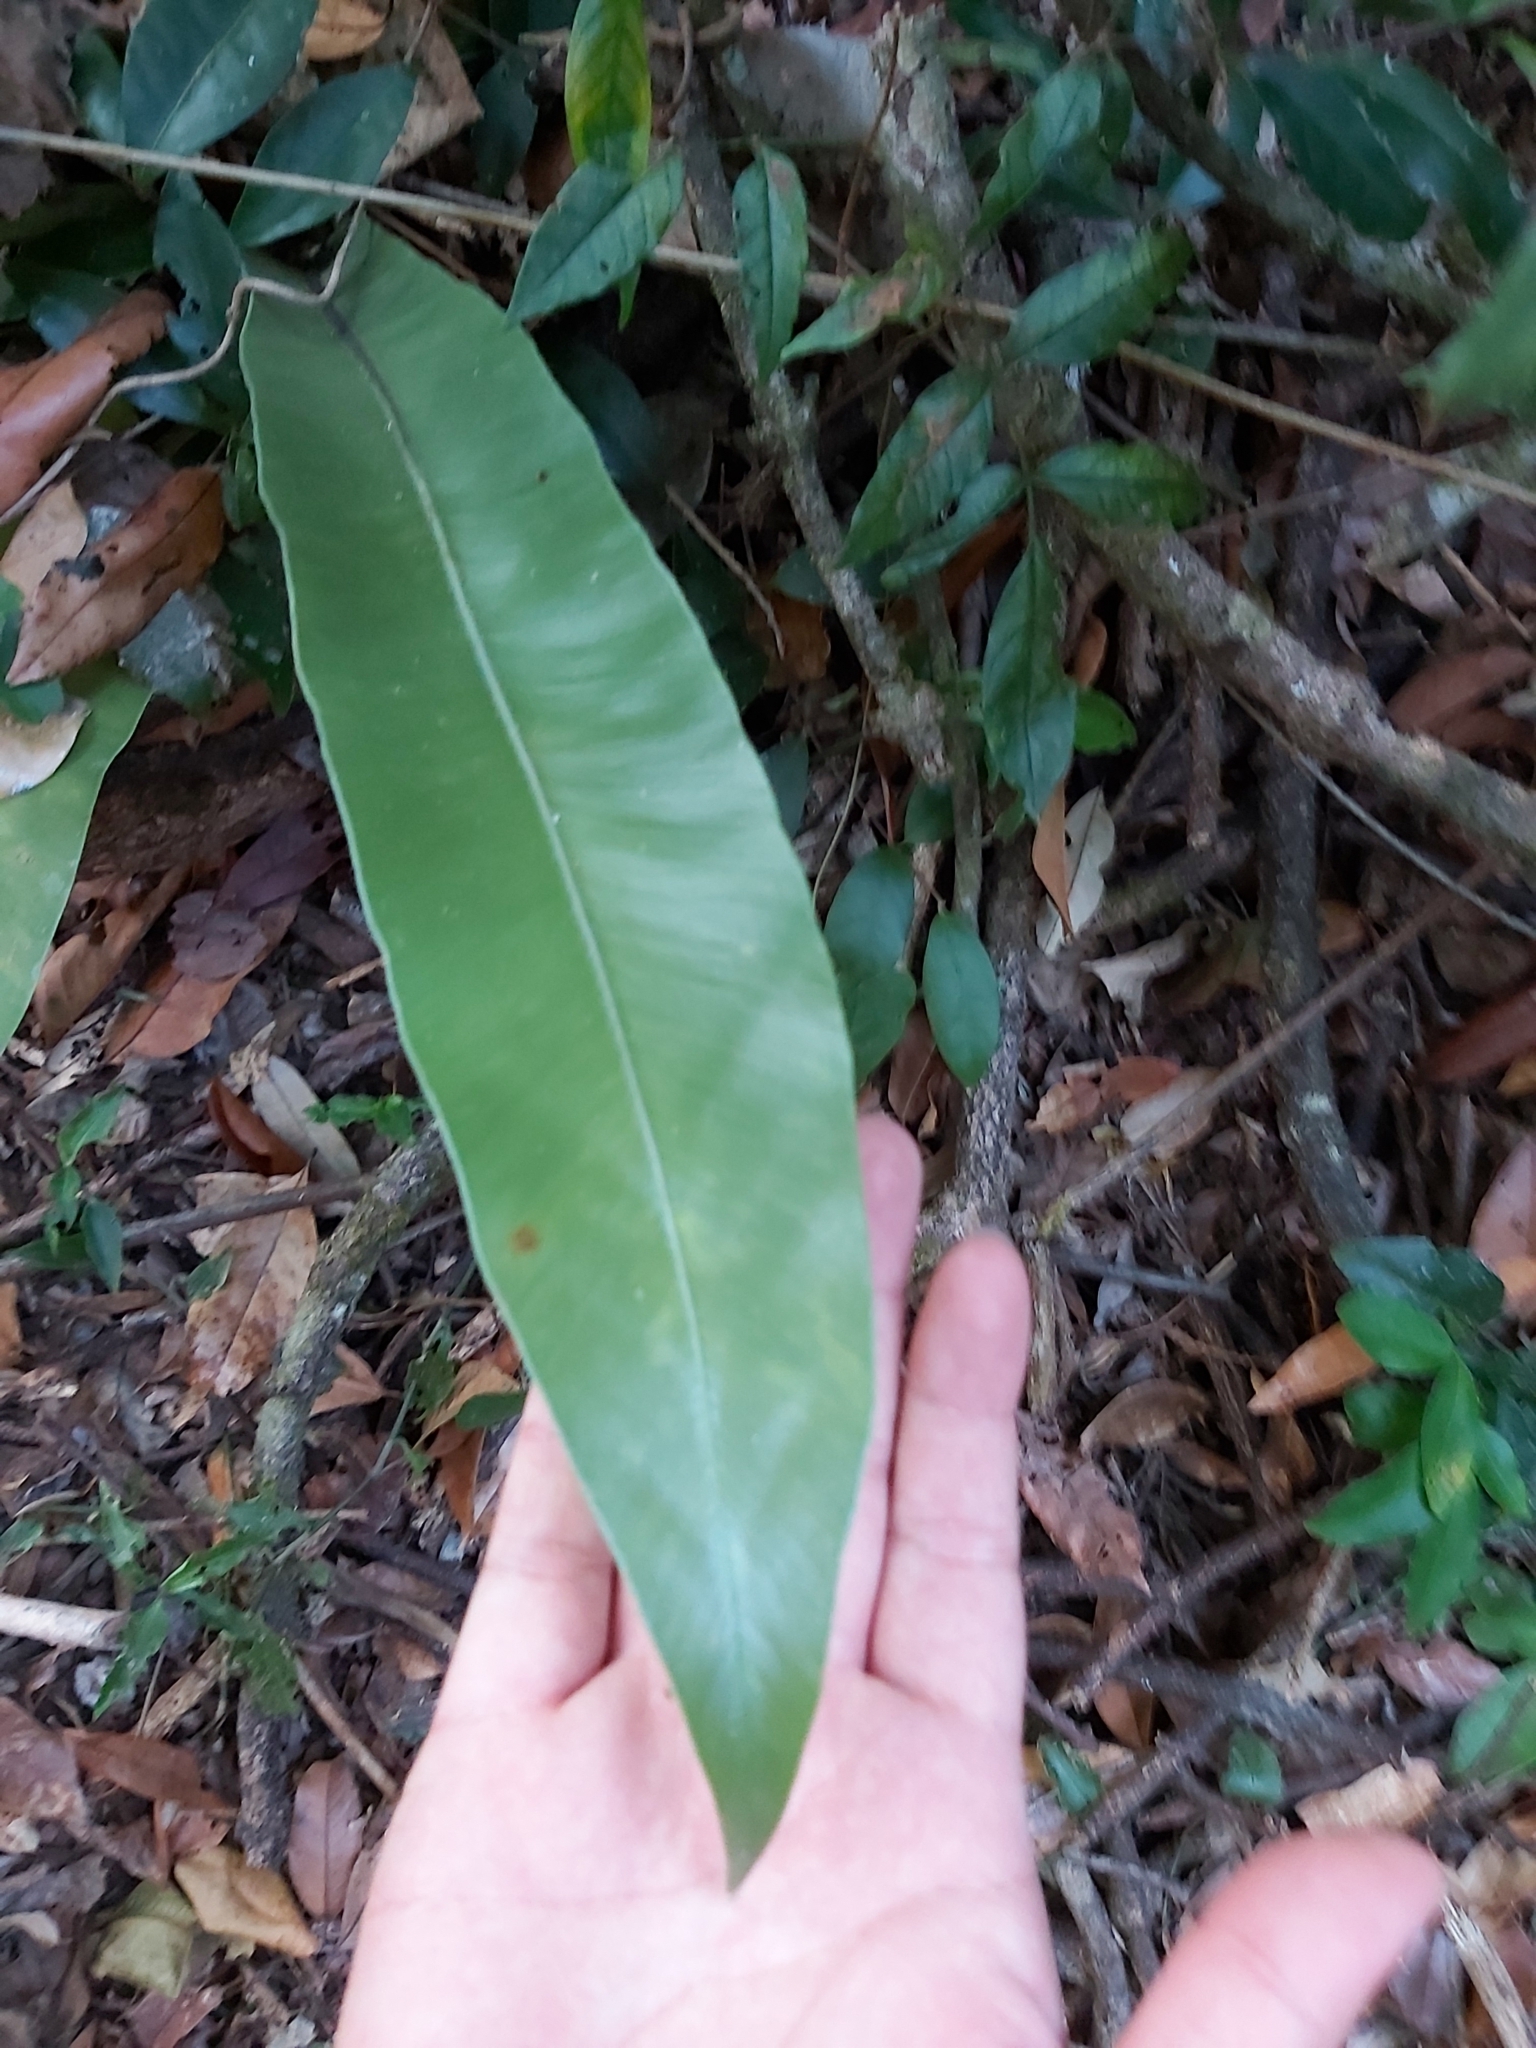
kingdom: Plantae
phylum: Tracheophyta
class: Polypodiopsida
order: Polypodiales
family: Aspleniaceae
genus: Asplenium
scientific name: Asplenium australasicum
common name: Bird's-nest fern
